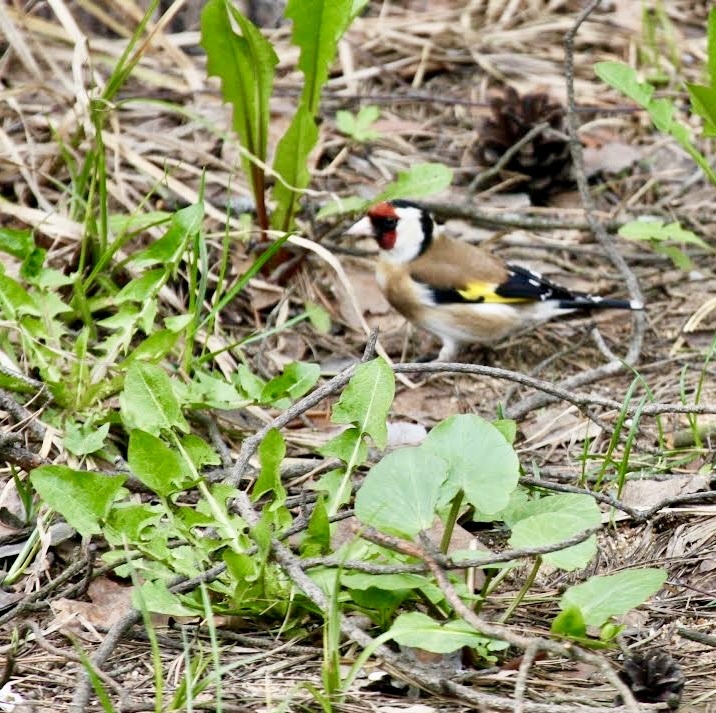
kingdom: Animalia
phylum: Chordata
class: Aves
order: Passeriformes
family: Fringillidae
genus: Carduelis
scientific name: Carduelis carduelis
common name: European goldfinch
